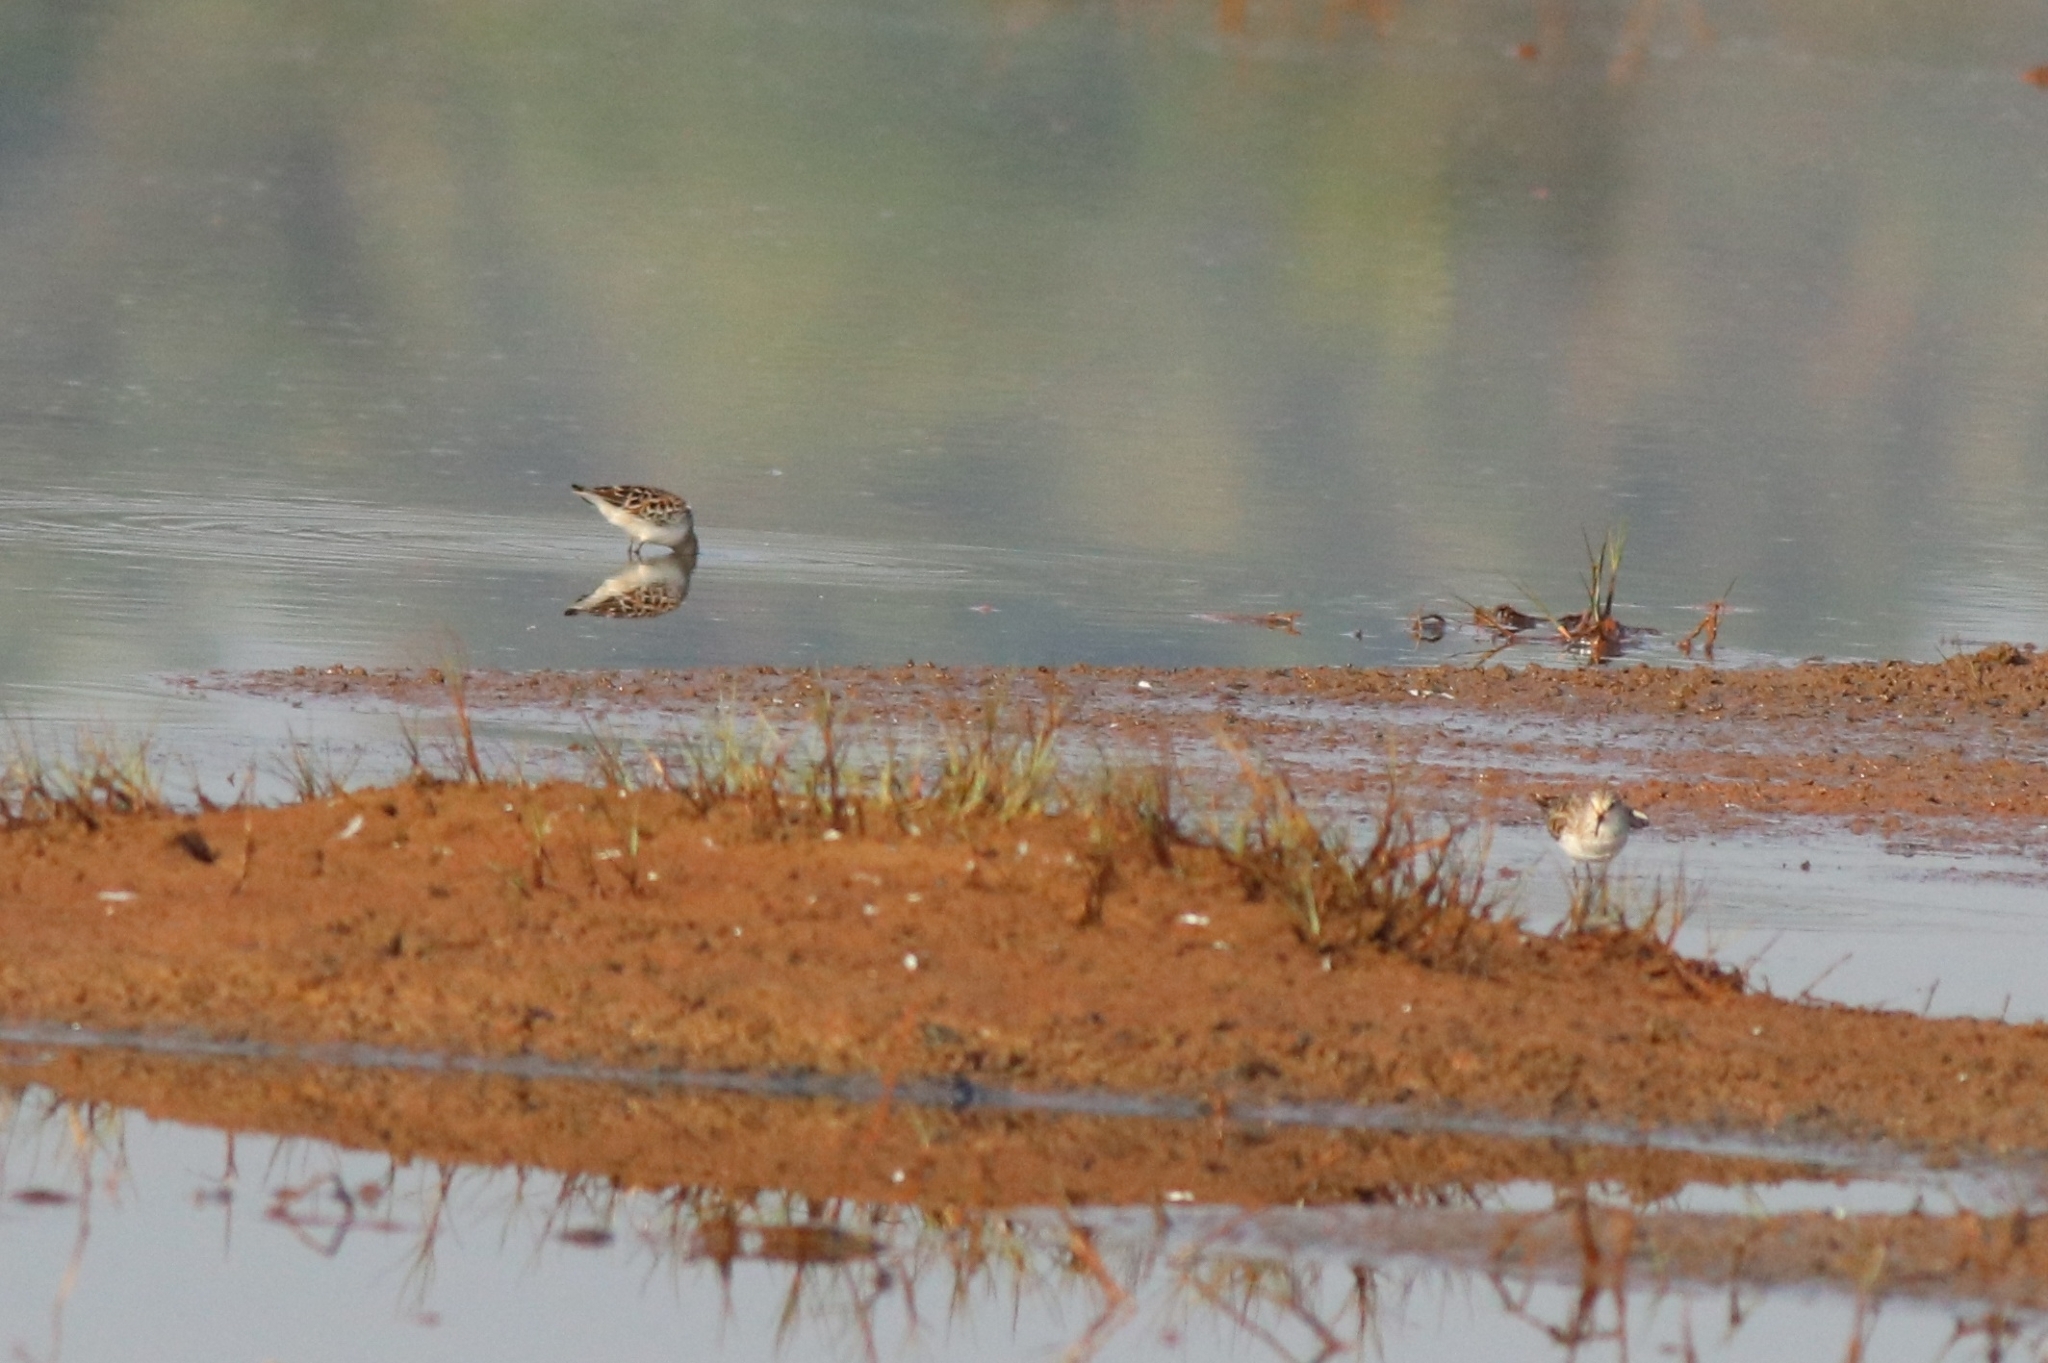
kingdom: Animalia
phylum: Chordata
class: Aves
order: Charadriiformes
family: Scolopacidae
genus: Calidris
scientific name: Calidris minuta
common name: Little stint
